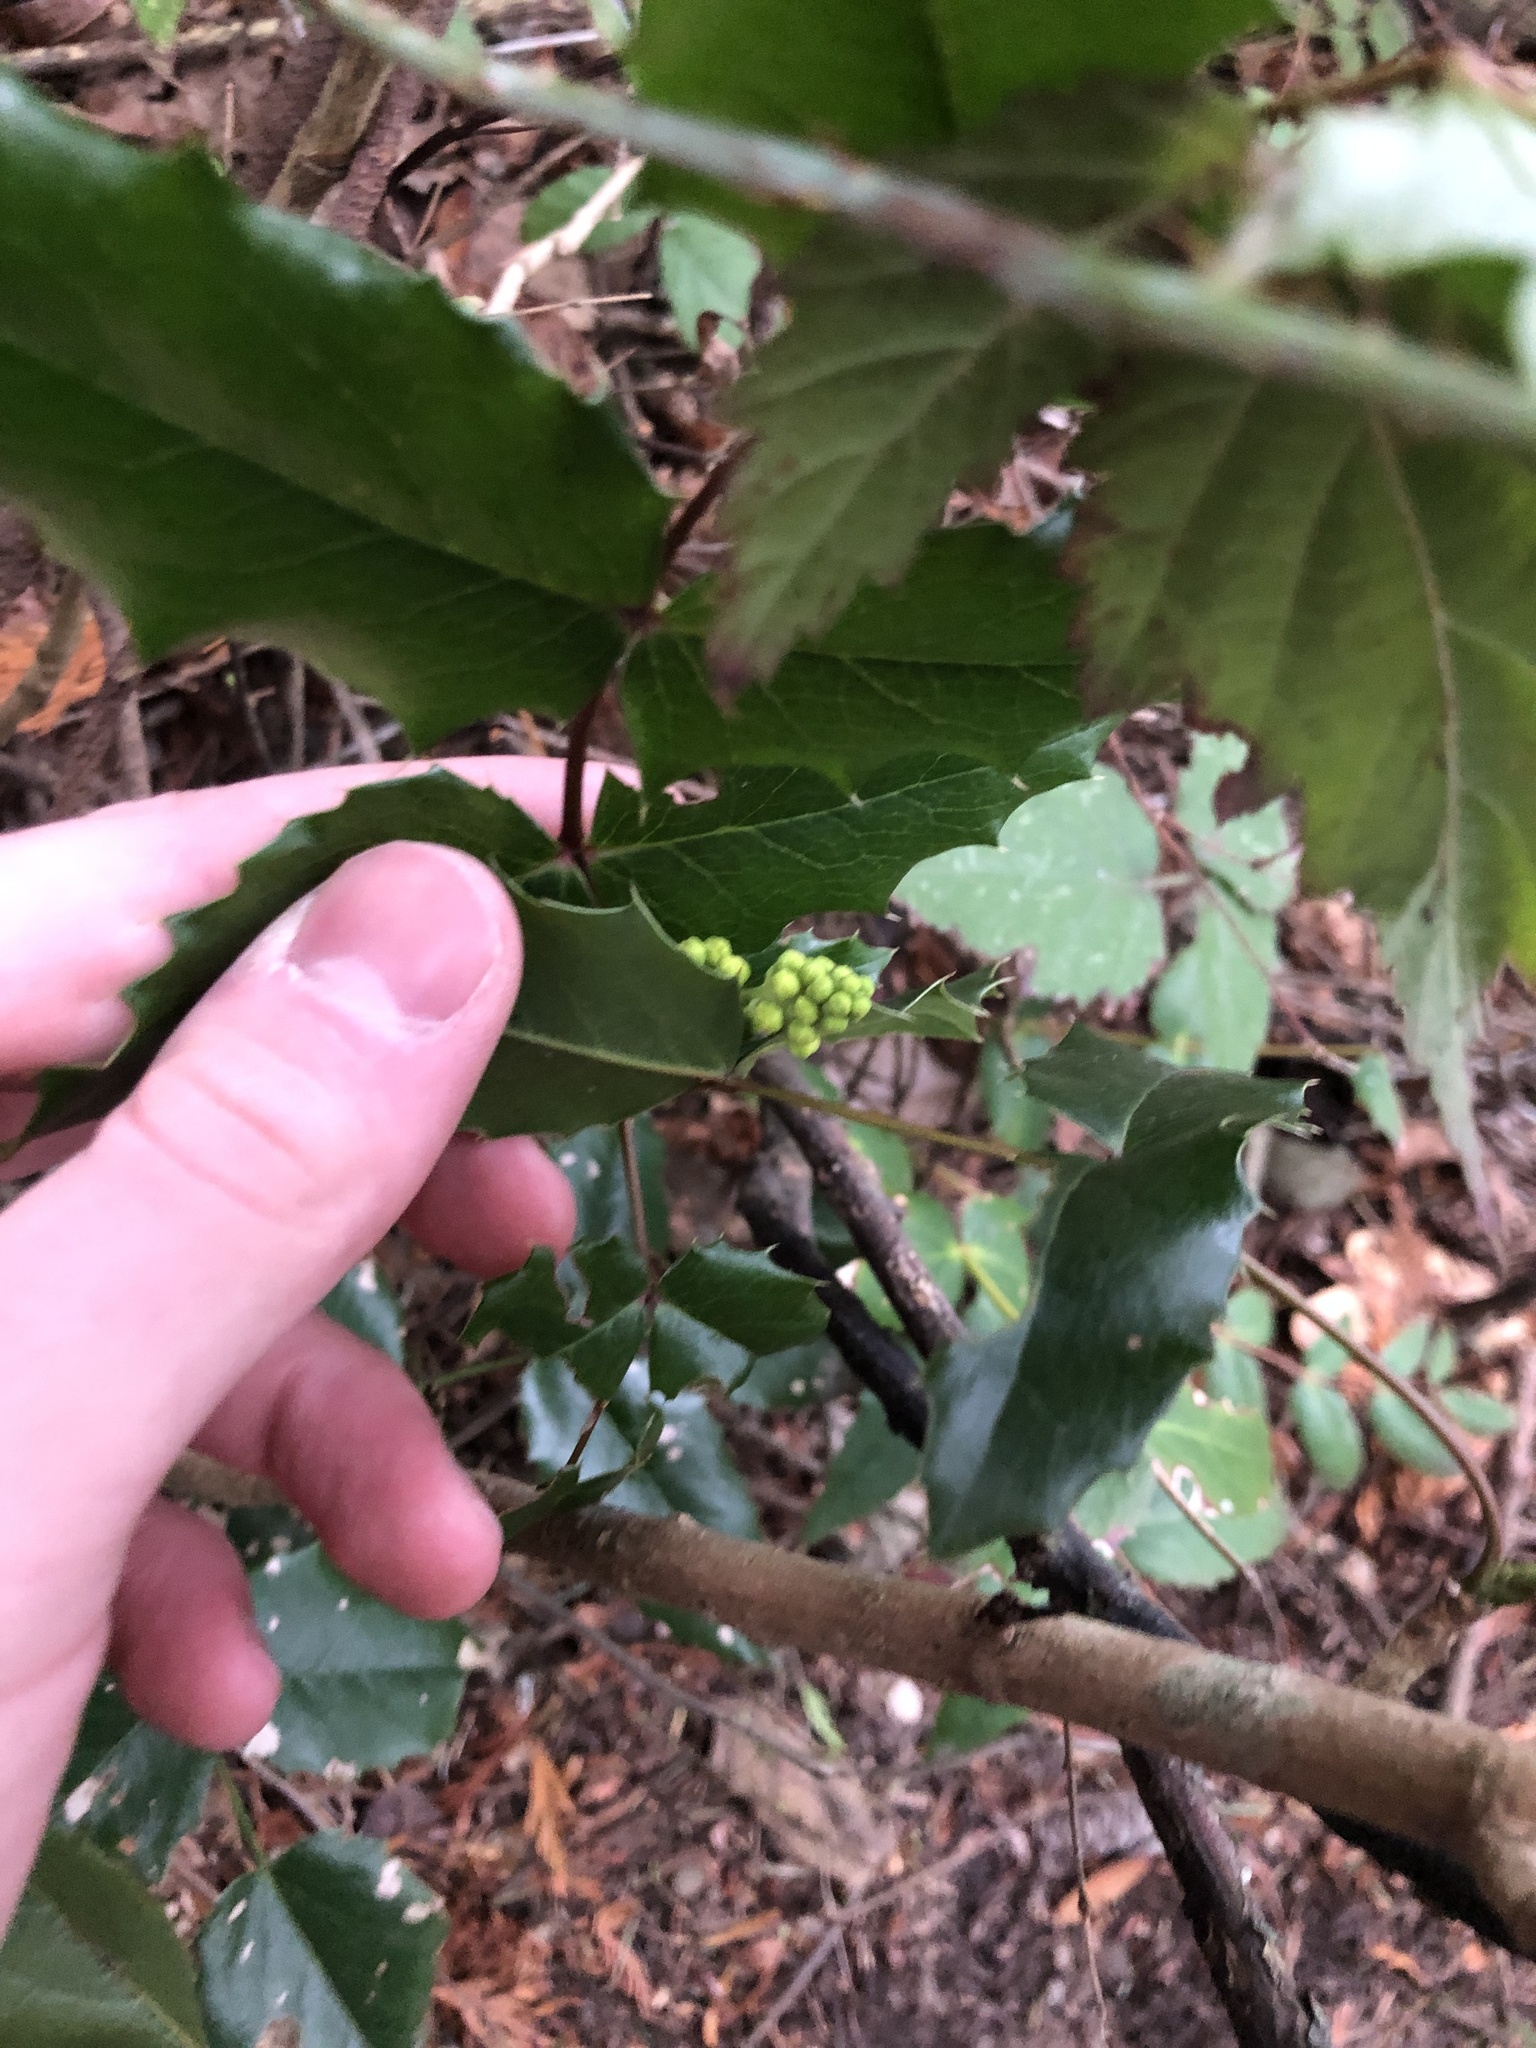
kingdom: Plantae
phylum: Tracheophyta
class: Magnoliopsida
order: Ranunculales
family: Berberidaceae
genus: Mahonia
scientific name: Mahonia aquifolium
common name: Oregon-grape
